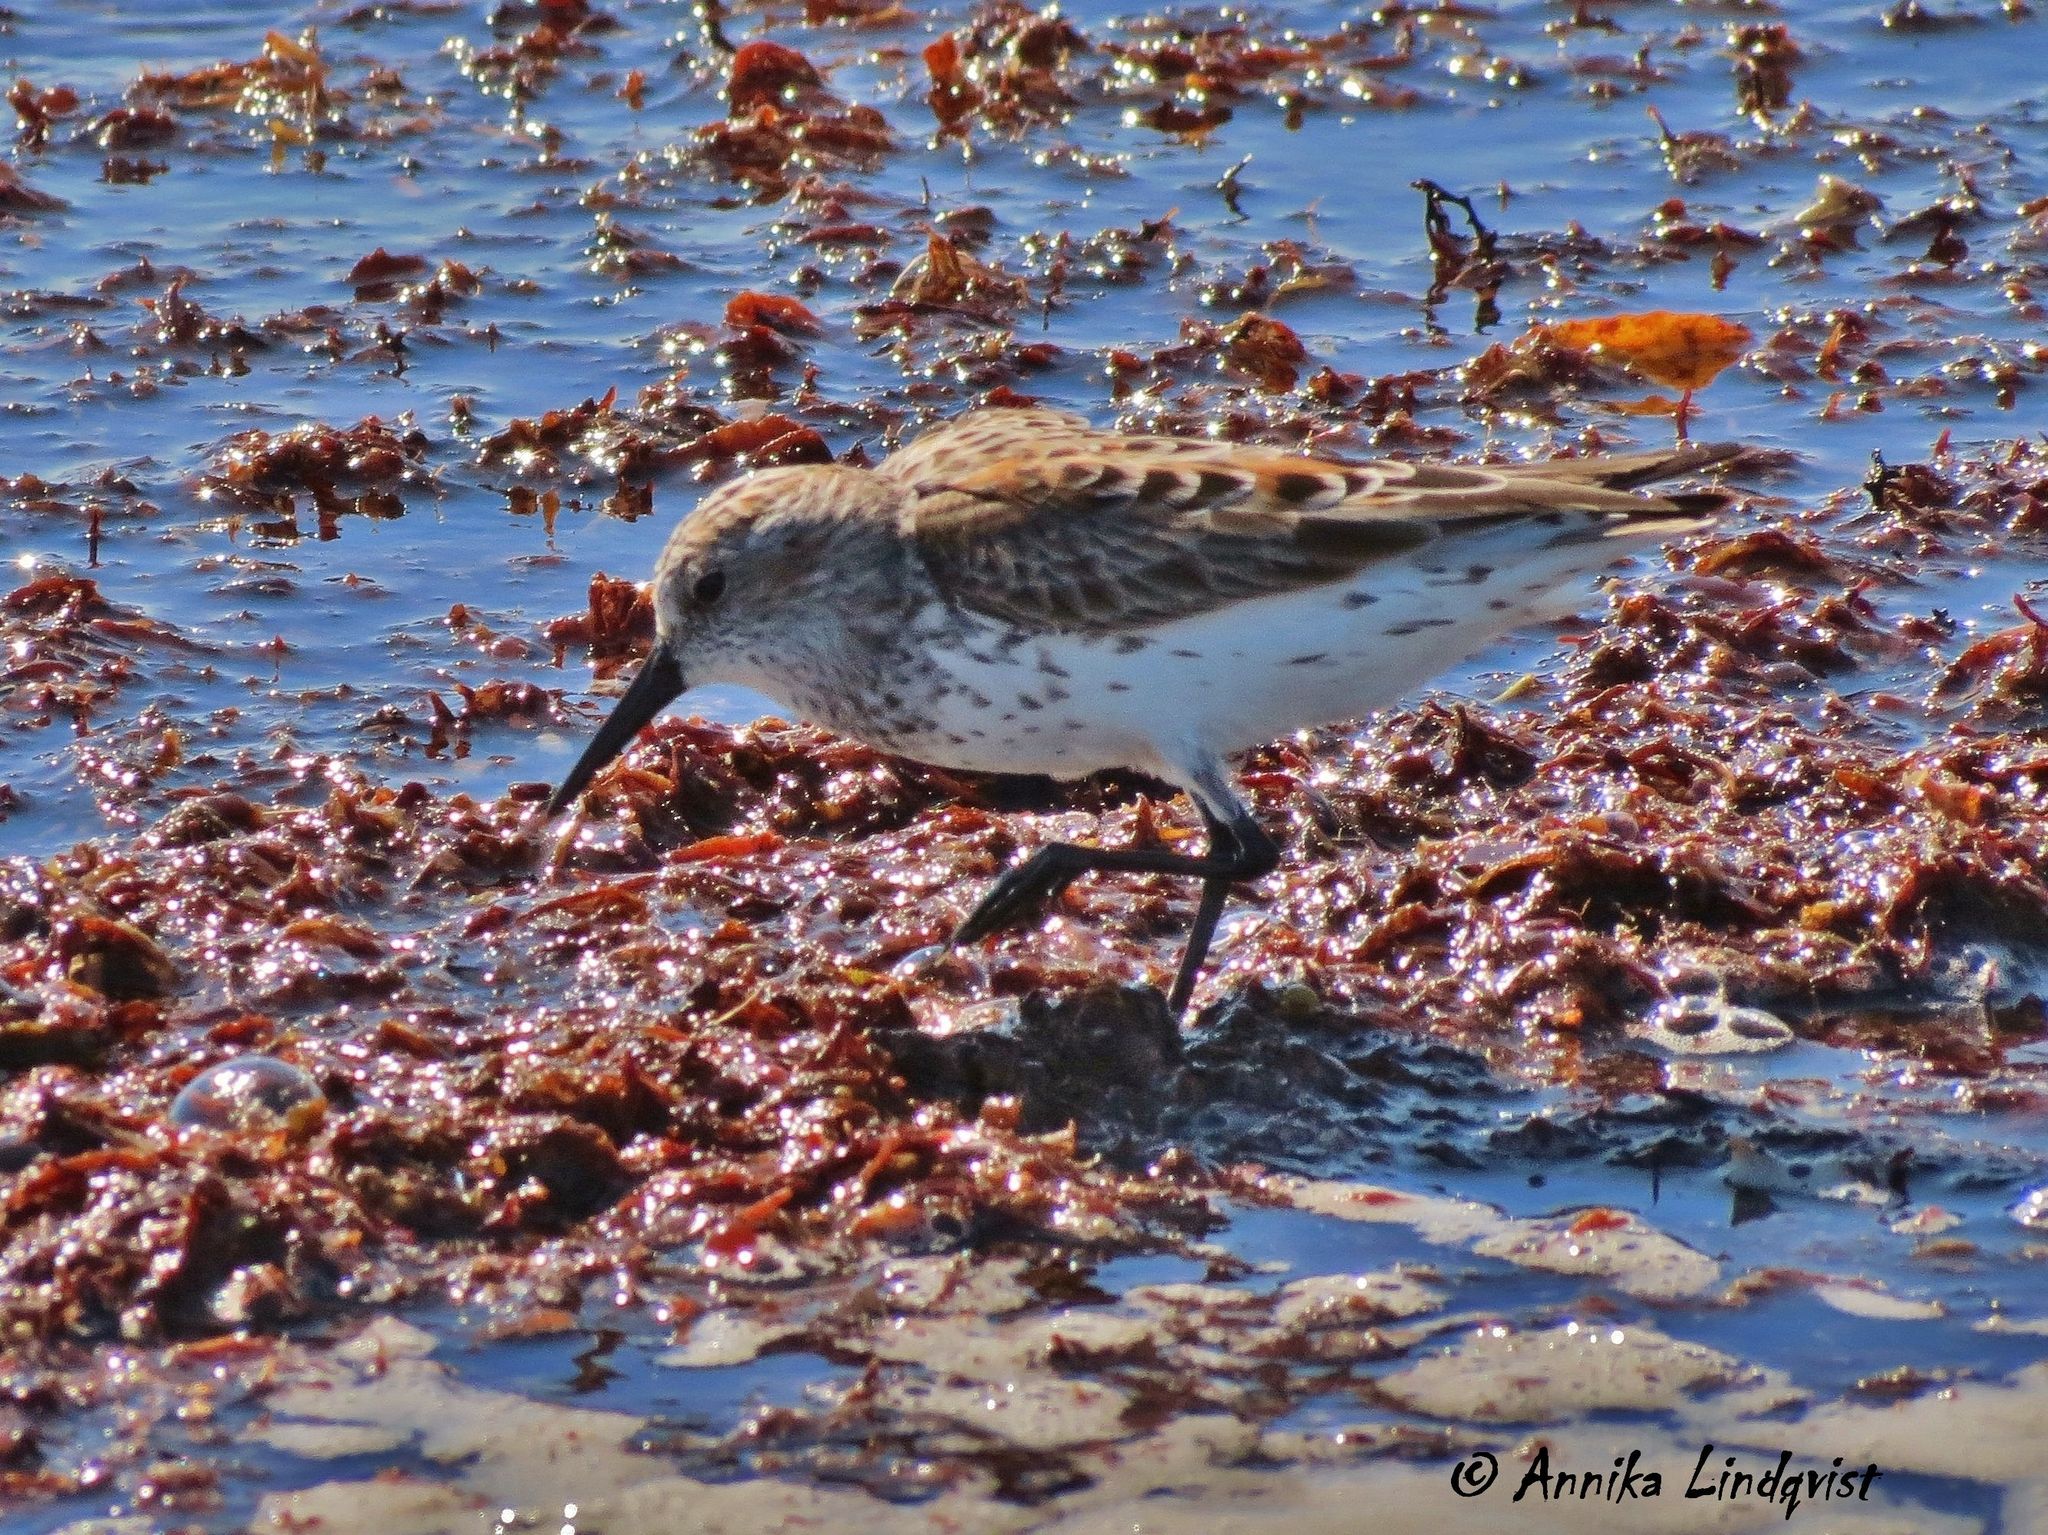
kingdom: Animalia
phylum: Chordata
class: Aves
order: Charadriiformes
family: Scolopacidae
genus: Calidris
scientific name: Calidris mauri
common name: Western sandpiper
